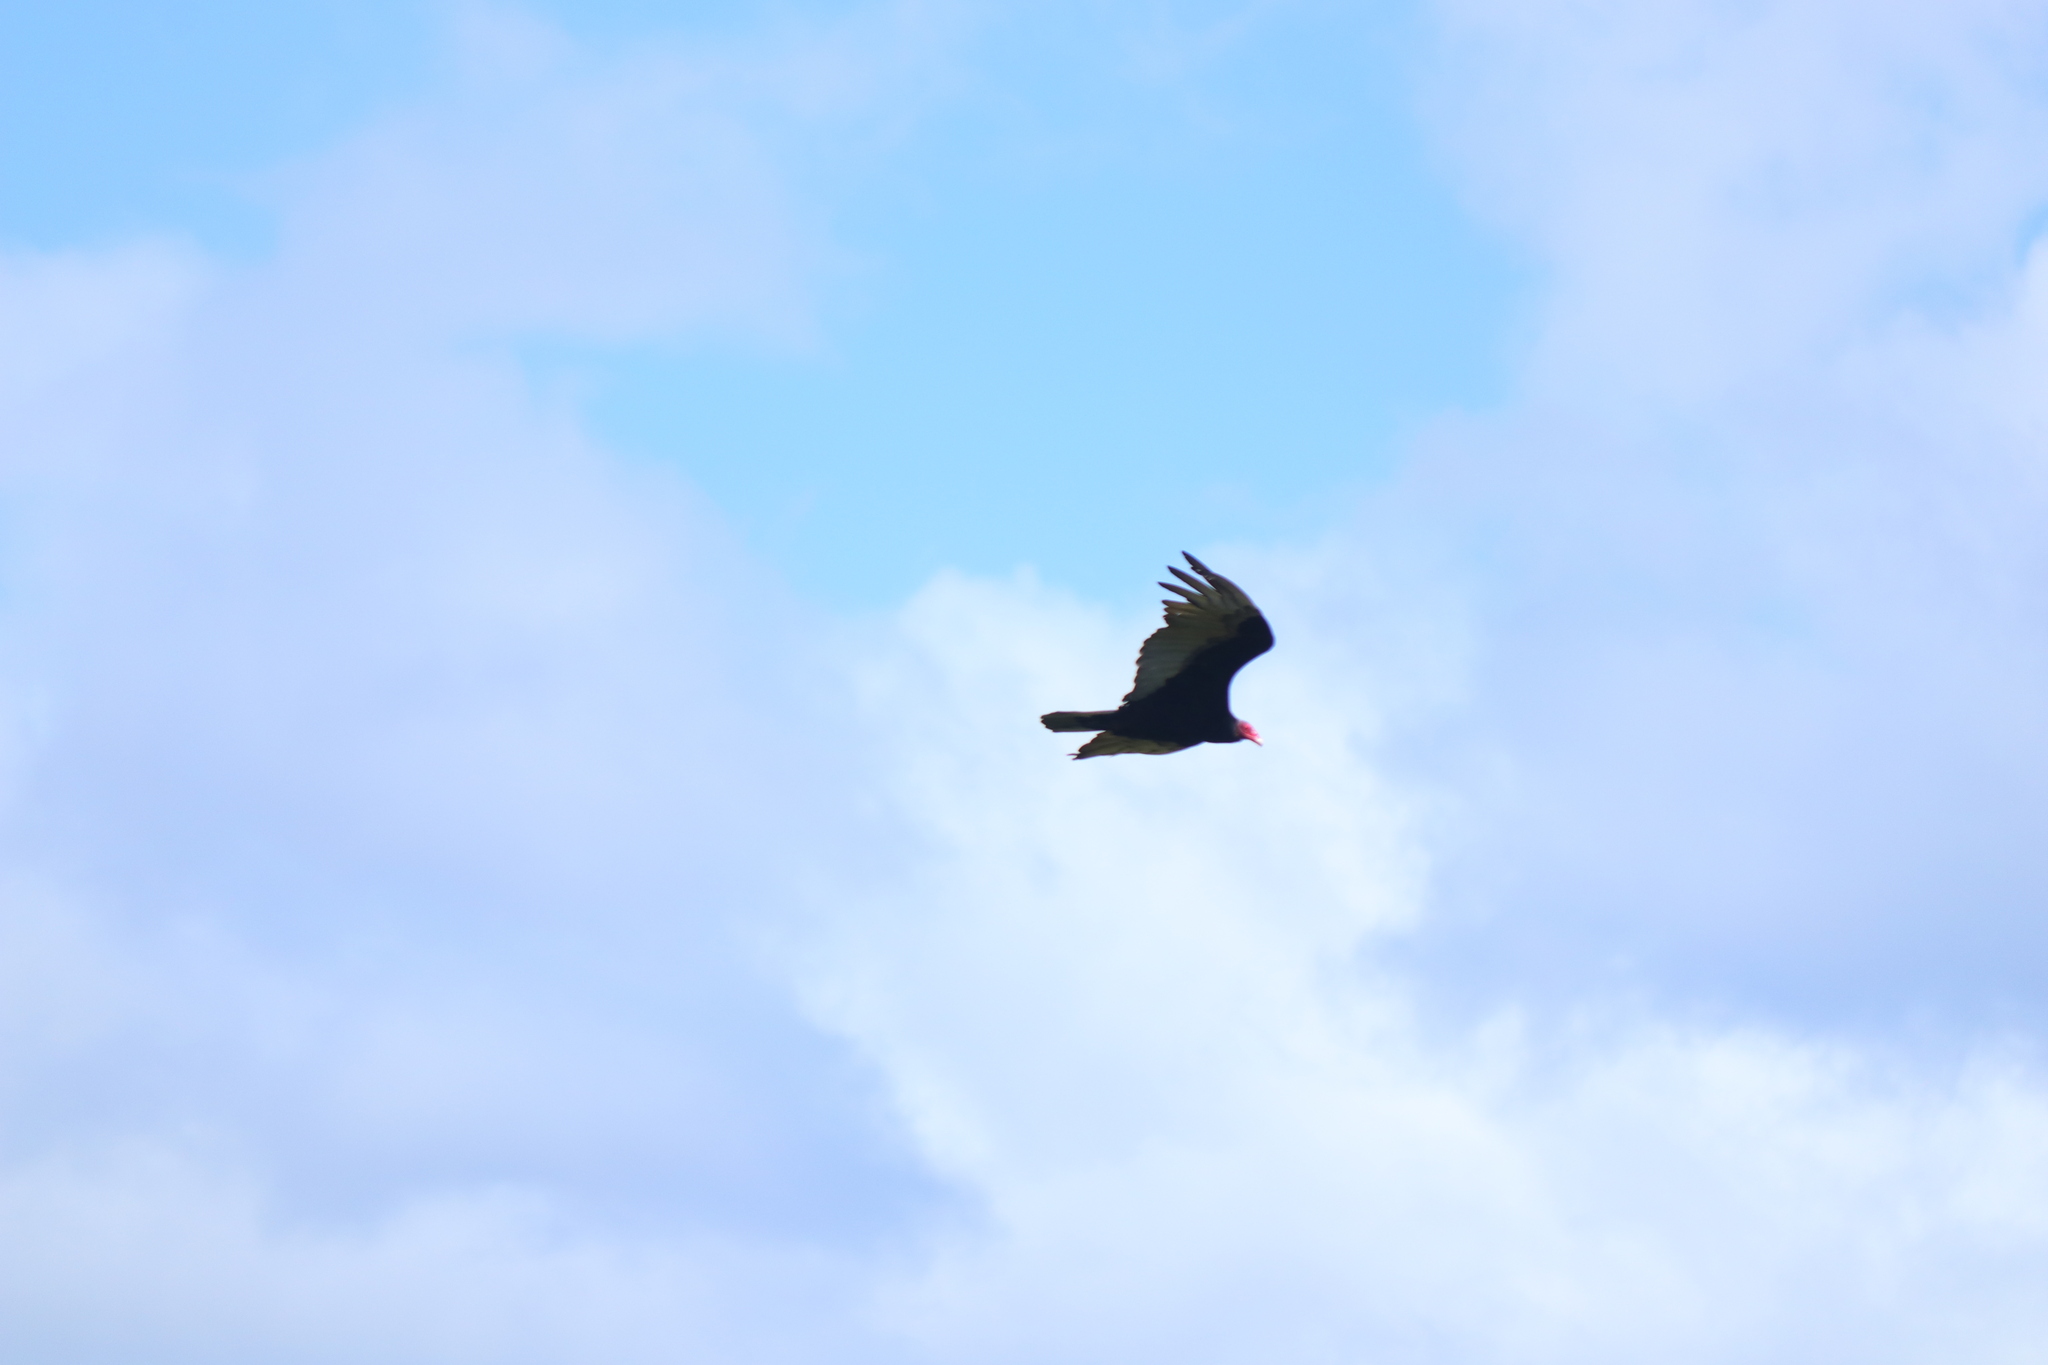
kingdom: Animalia
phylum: Chordata
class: Aves
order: Accipitriformes
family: Cathartidae
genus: Cathartes
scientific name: Cathartes aura
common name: Turkey vulture
